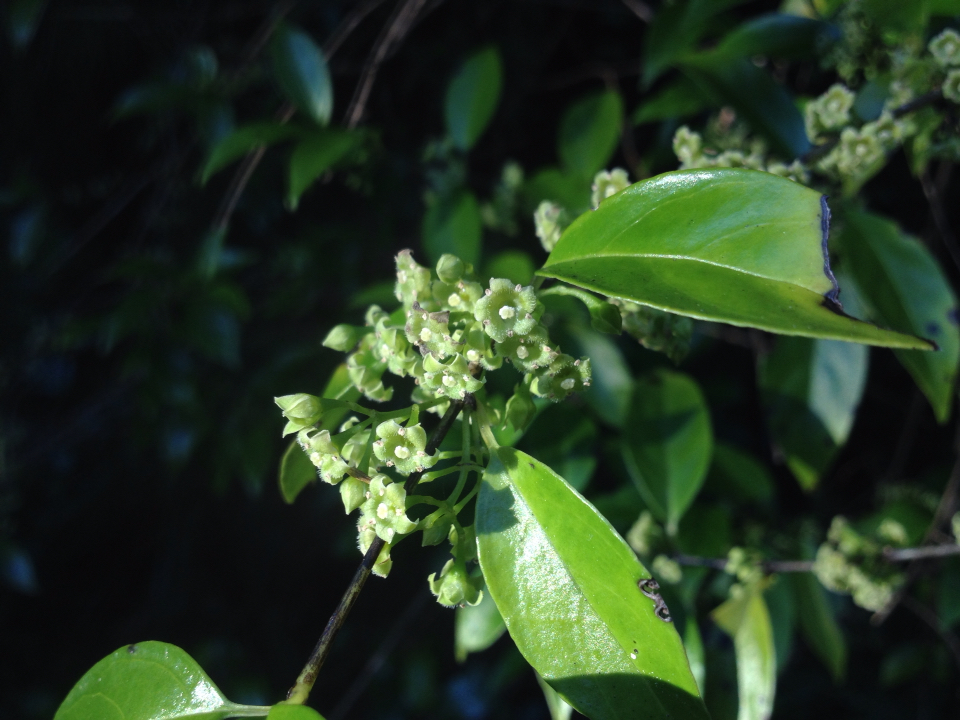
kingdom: Plantae
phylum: Tracheophyta
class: Magnoliopsida
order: Gentianales
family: Loganiaceae
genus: Geniostoma
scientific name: Geniostoma ligustrifolium
